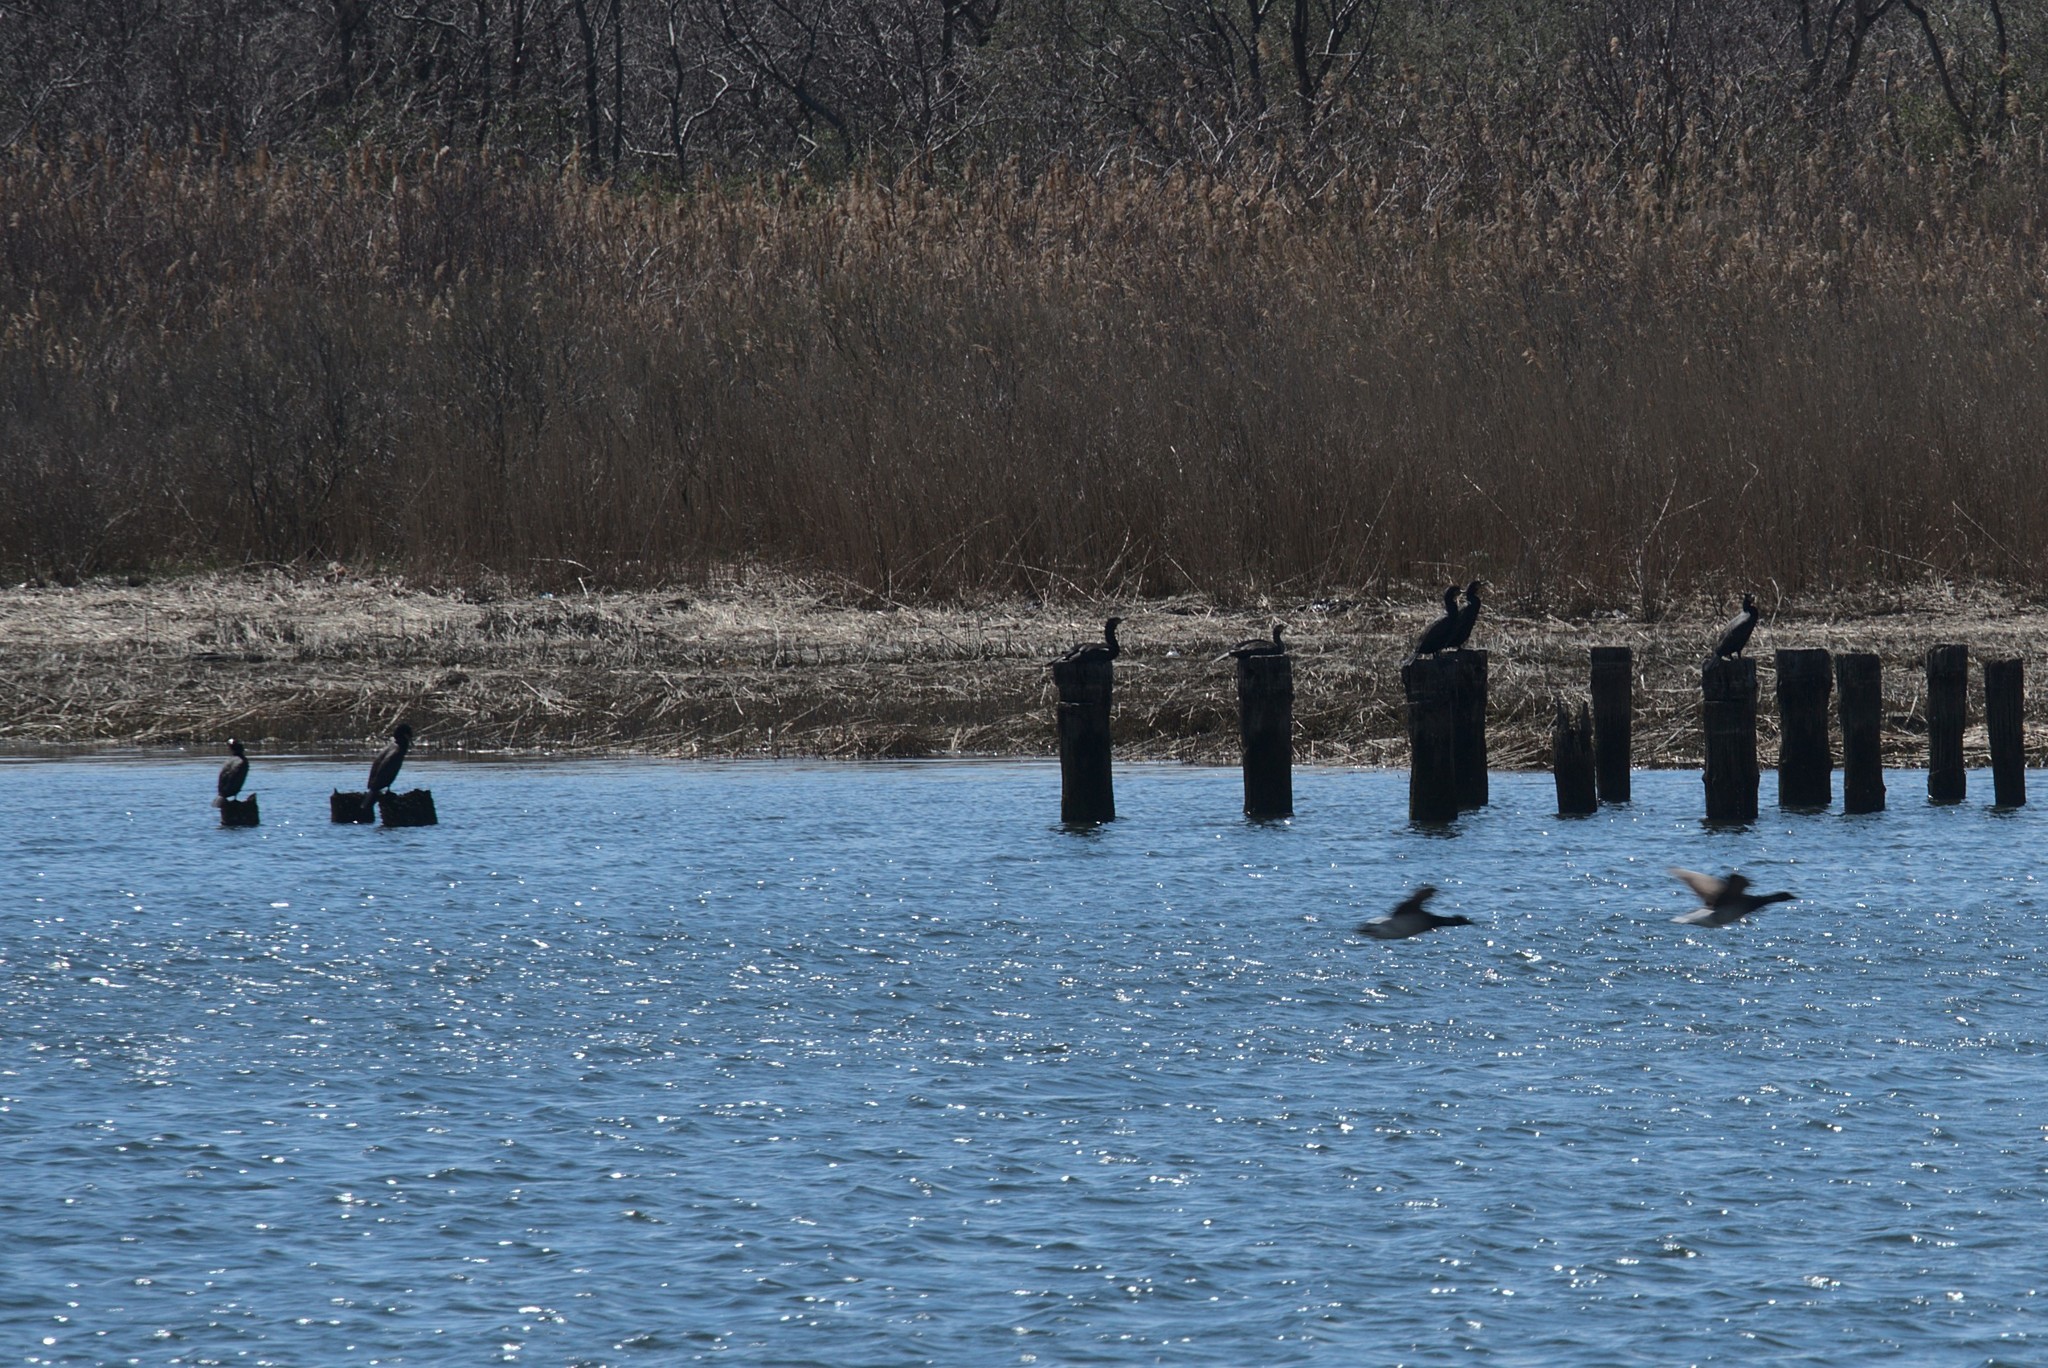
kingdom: Animalia
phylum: Chordata
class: Aves
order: Suliformes
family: Phalacrocoracidae
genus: Phalacrocorax
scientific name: Phalacrocorax auritus
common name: Double-crested cormorant
